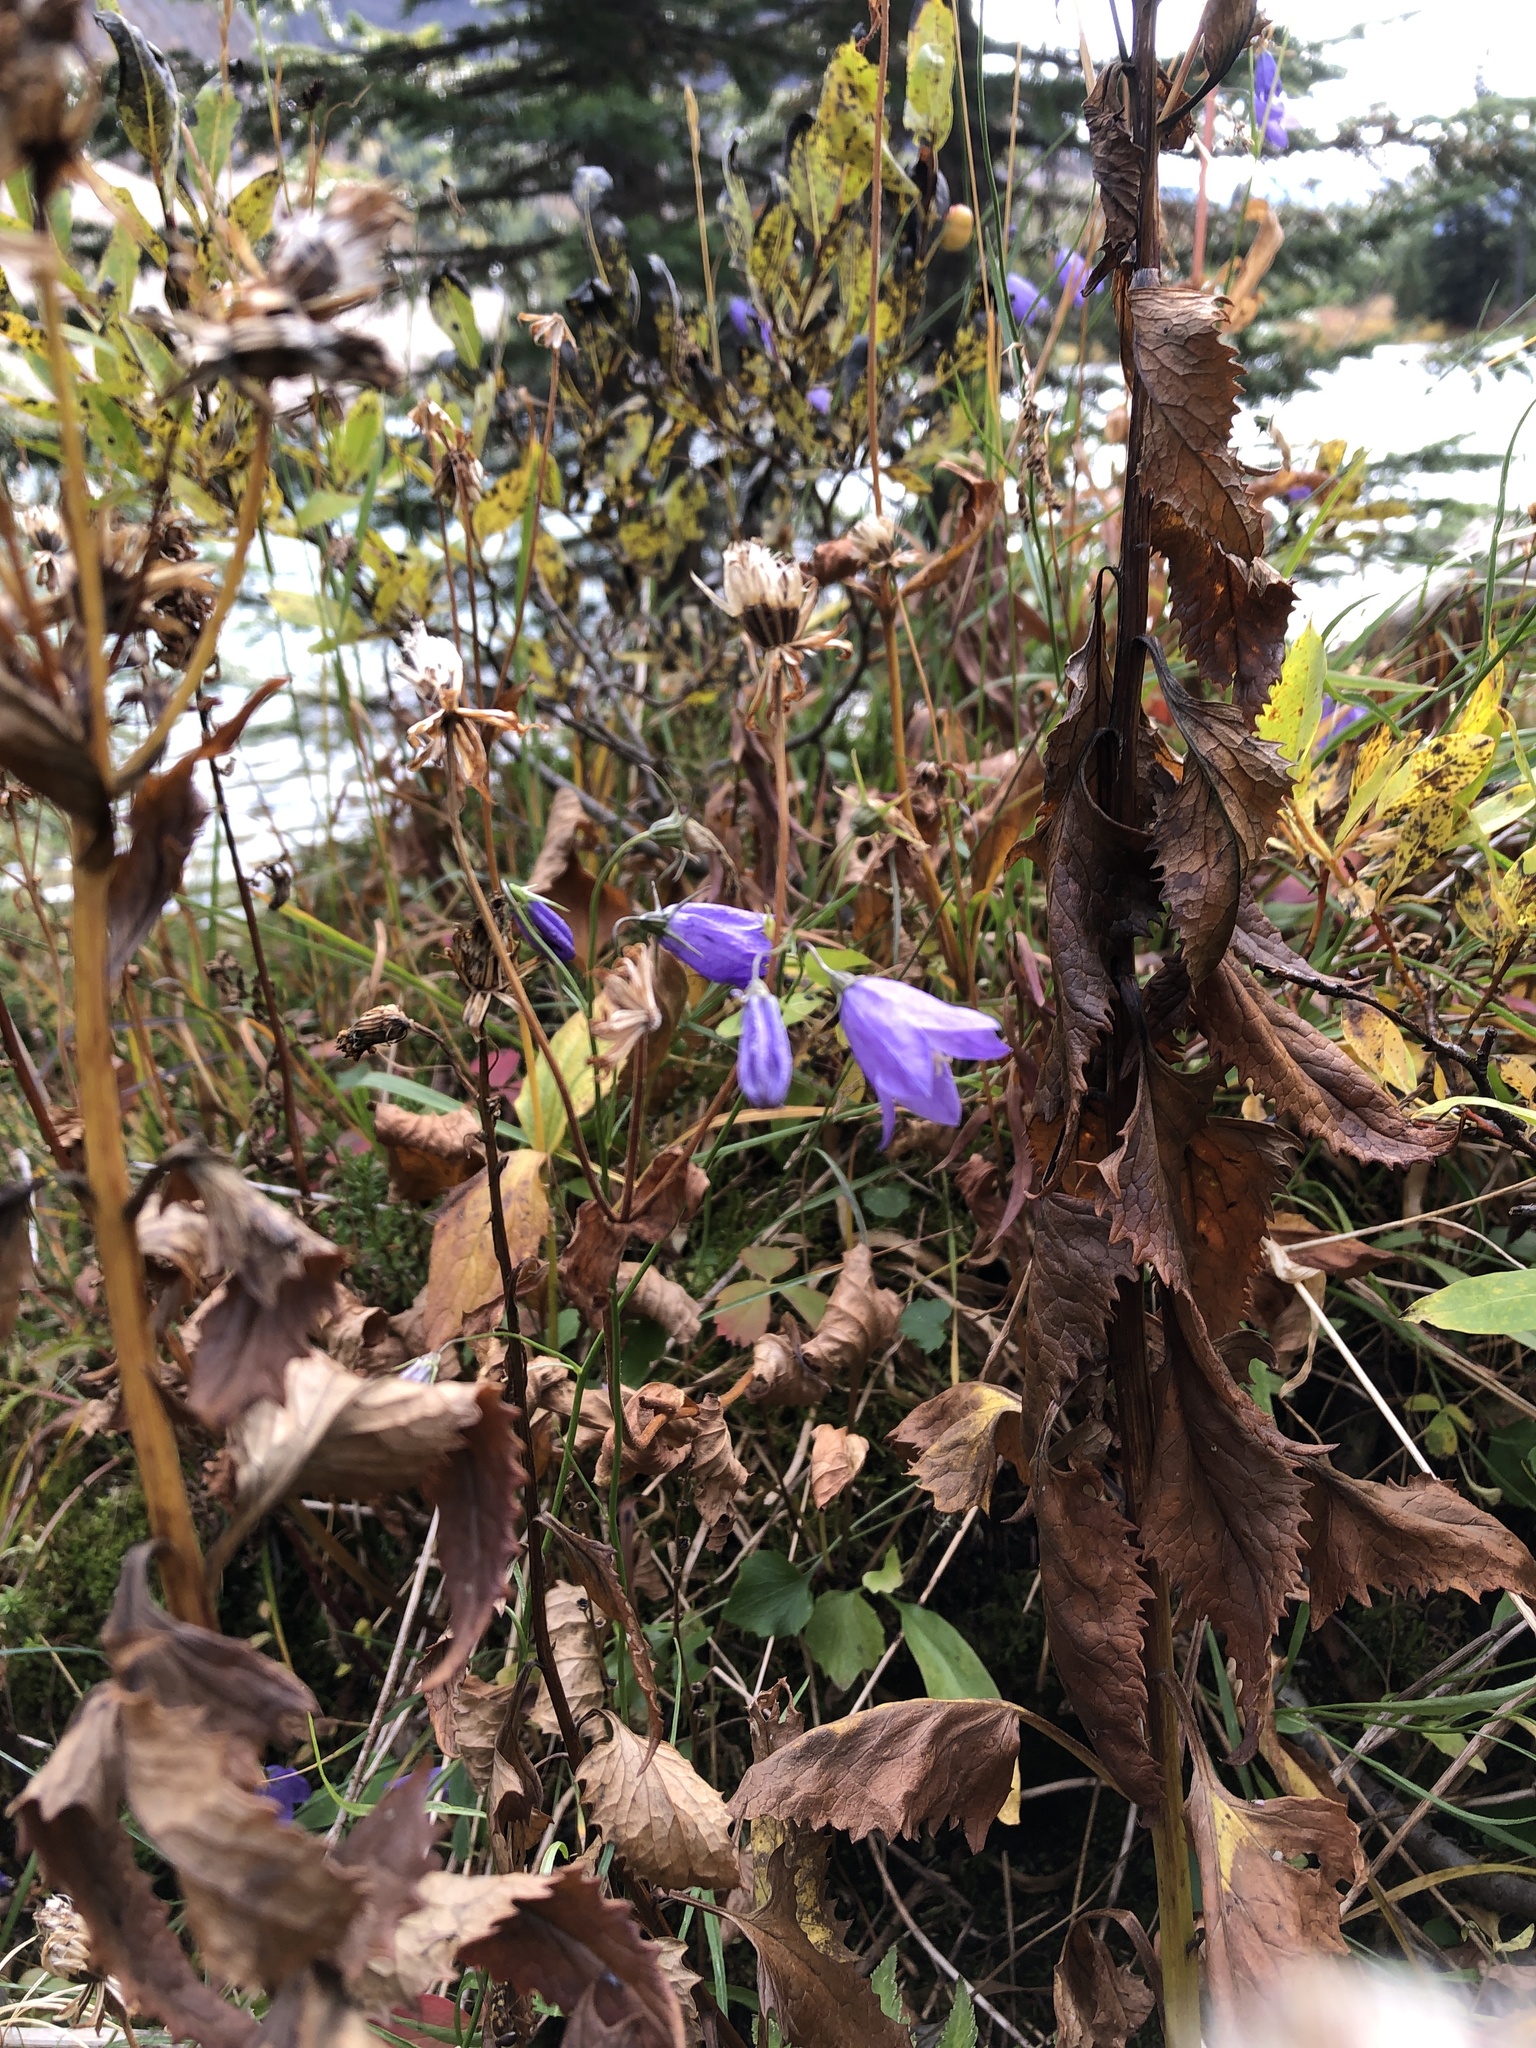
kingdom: Plantae
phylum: Tracheophyta
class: Magnoliopsida
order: Asterales
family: Campanulaceae
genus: Campanula
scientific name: Campanula alaskana
